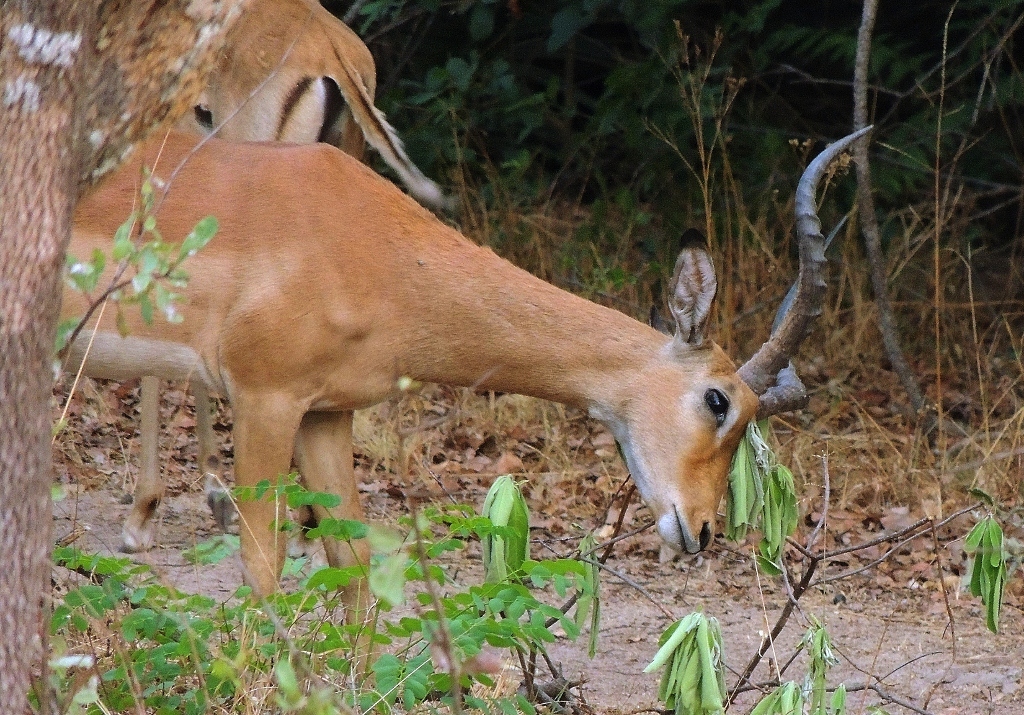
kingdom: Animalia
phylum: Chordata
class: Mammalia
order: Artiodactyla
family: Bovidae
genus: Aepyceros
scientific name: Aepyceros melampus
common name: Impala
